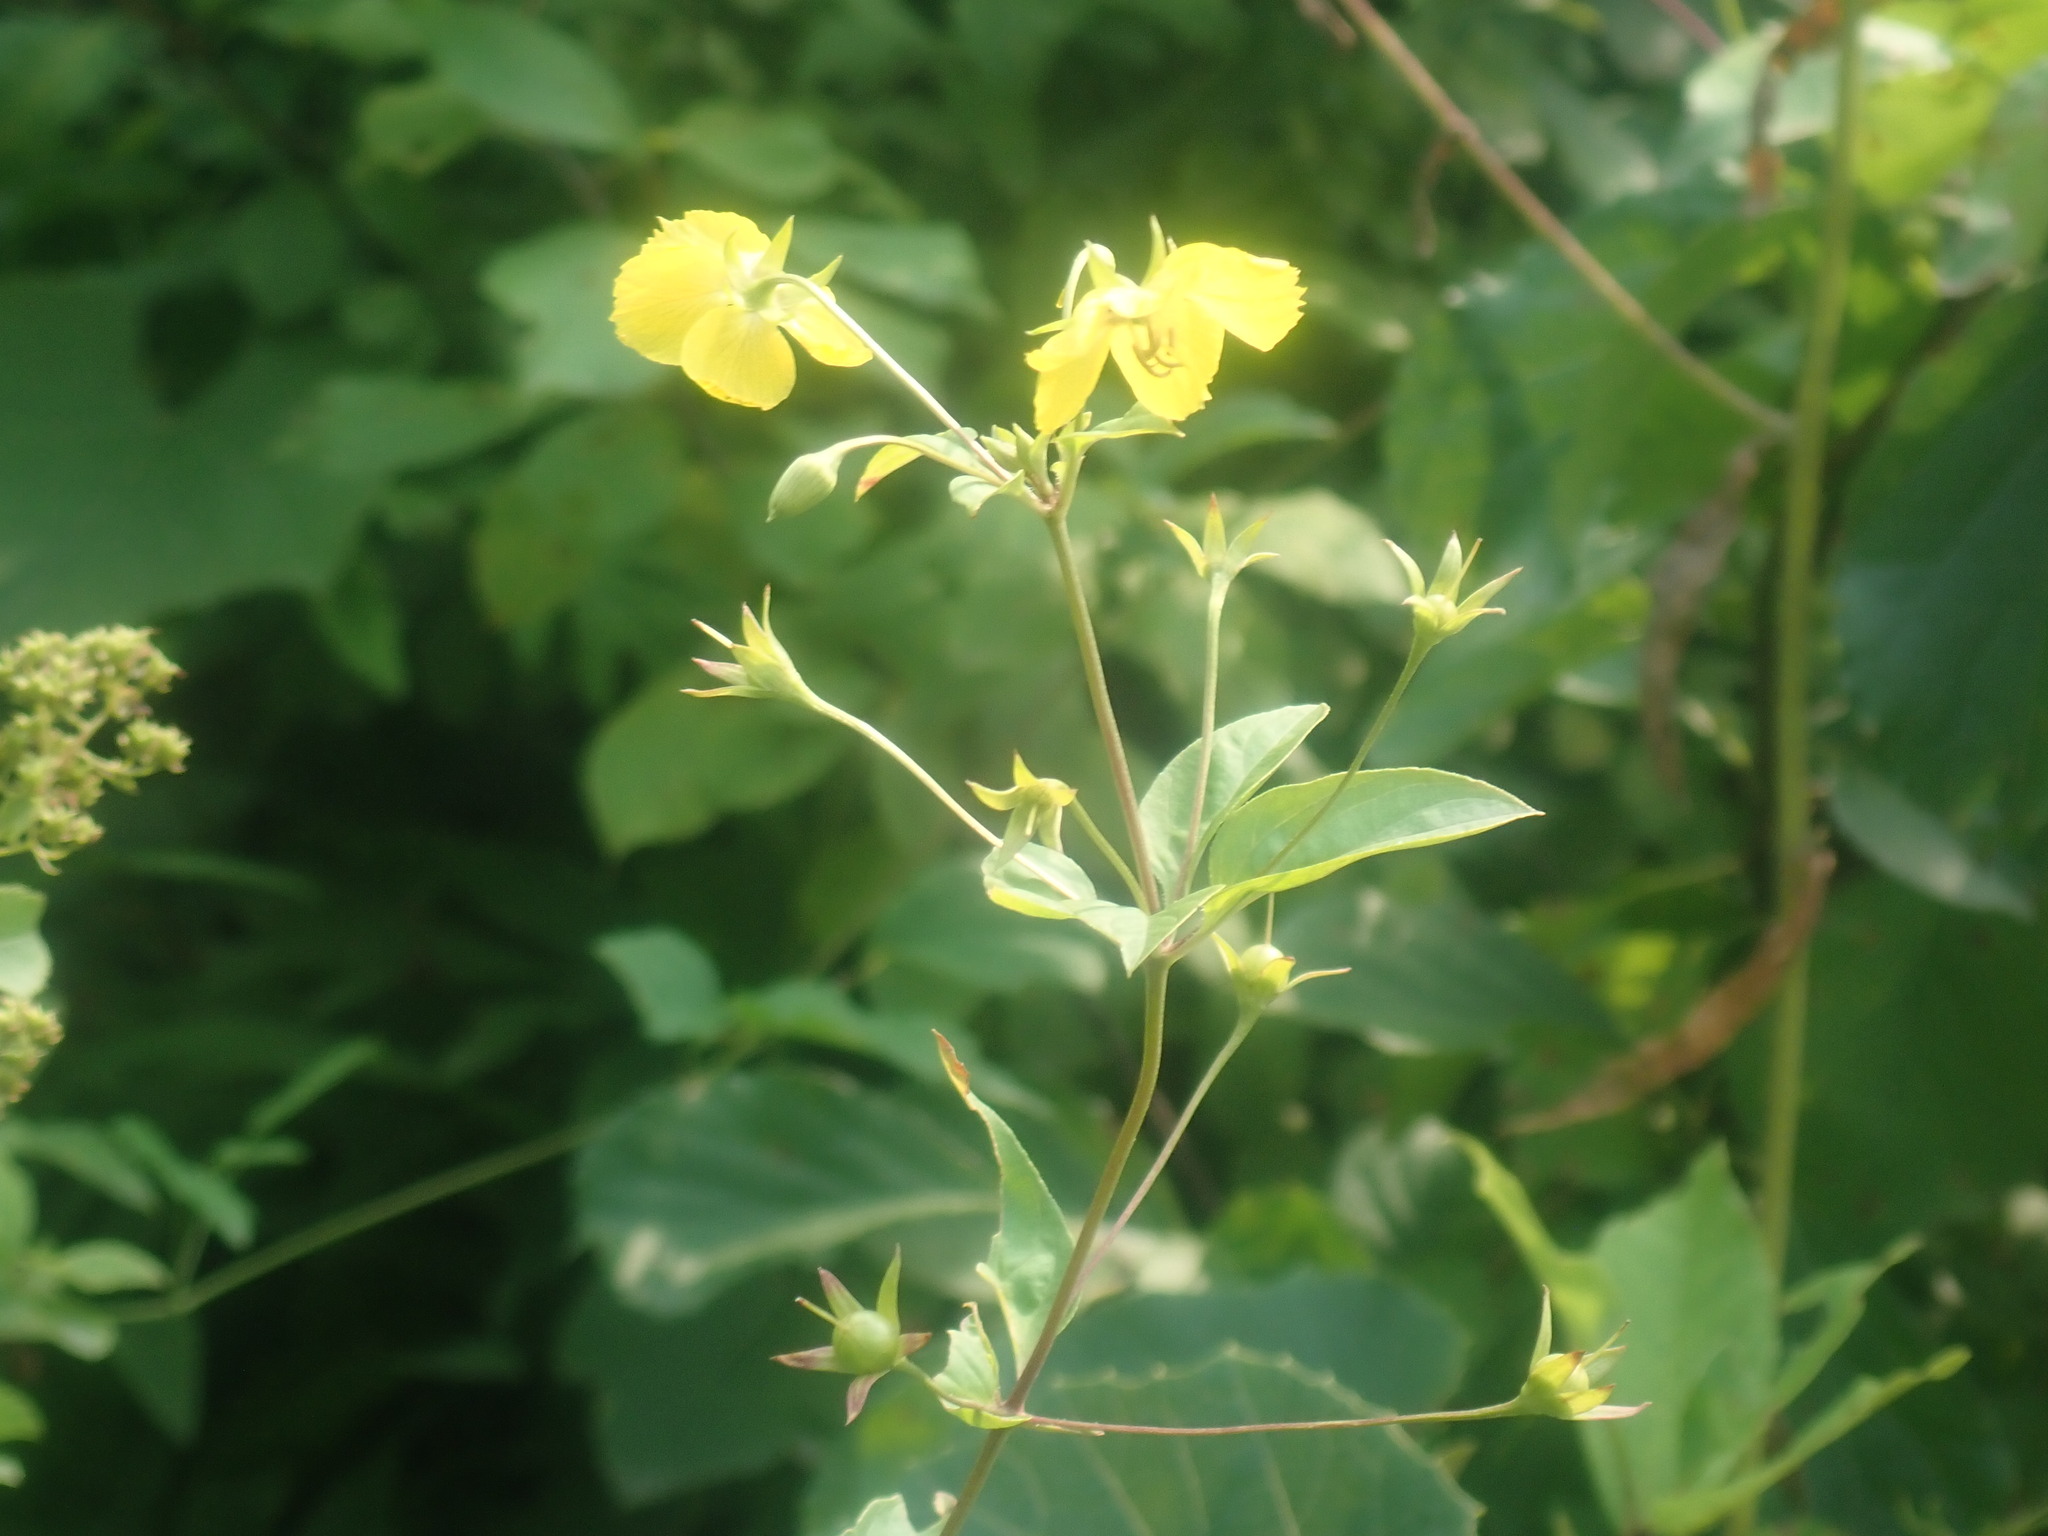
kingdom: Plantae
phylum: Tracheophyta
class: Magnoliopsida
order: Ericales
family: Primulaceae
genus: Lysimachia
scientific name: Lysimachia ciliata
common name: Fringed loosestrife
